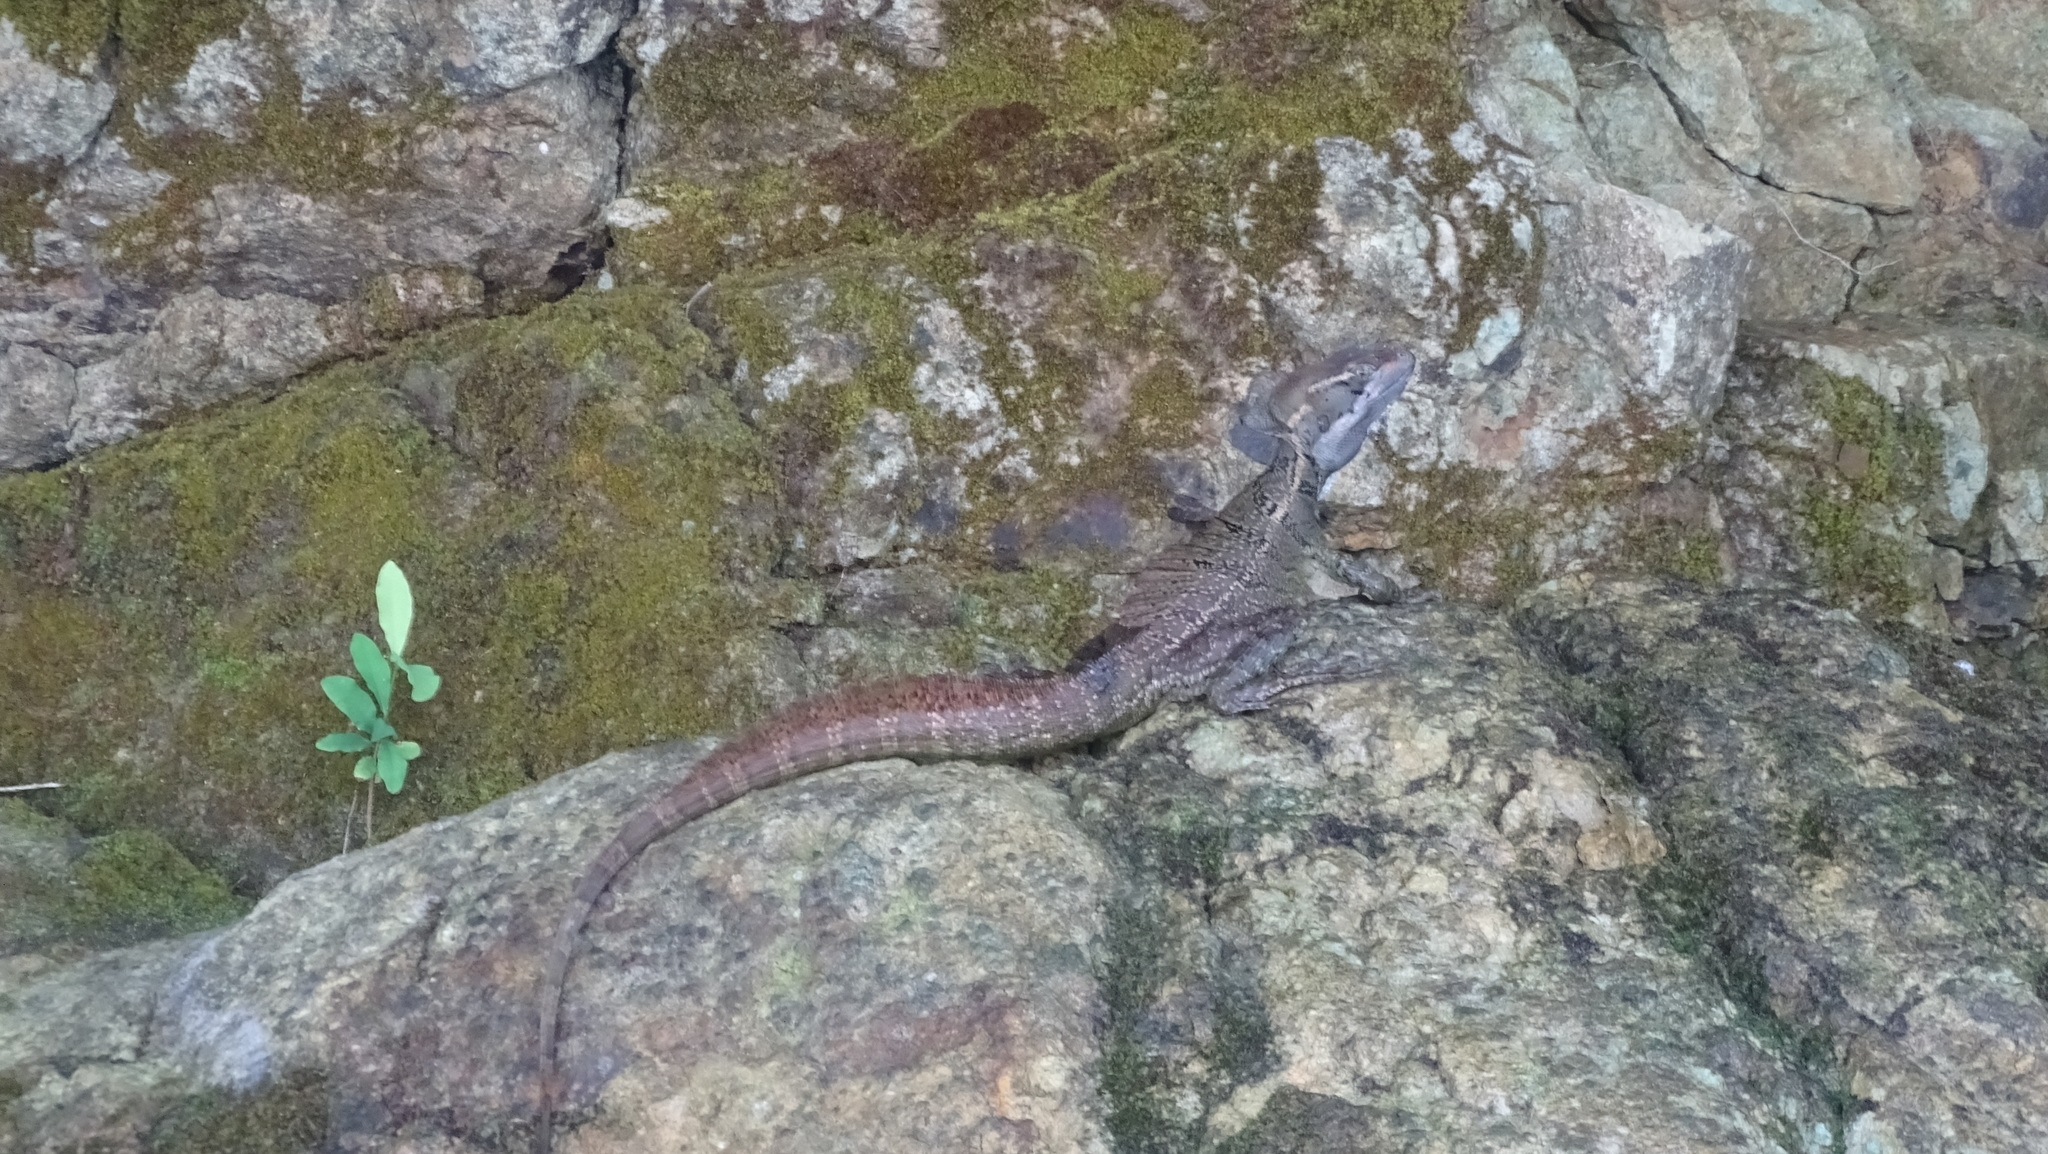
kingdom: Animalia
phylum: Chordata
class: Squamata
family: Corytophanidae
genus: Basiliscus
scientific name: Basiliscus basiliscus
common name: Common basilisk
